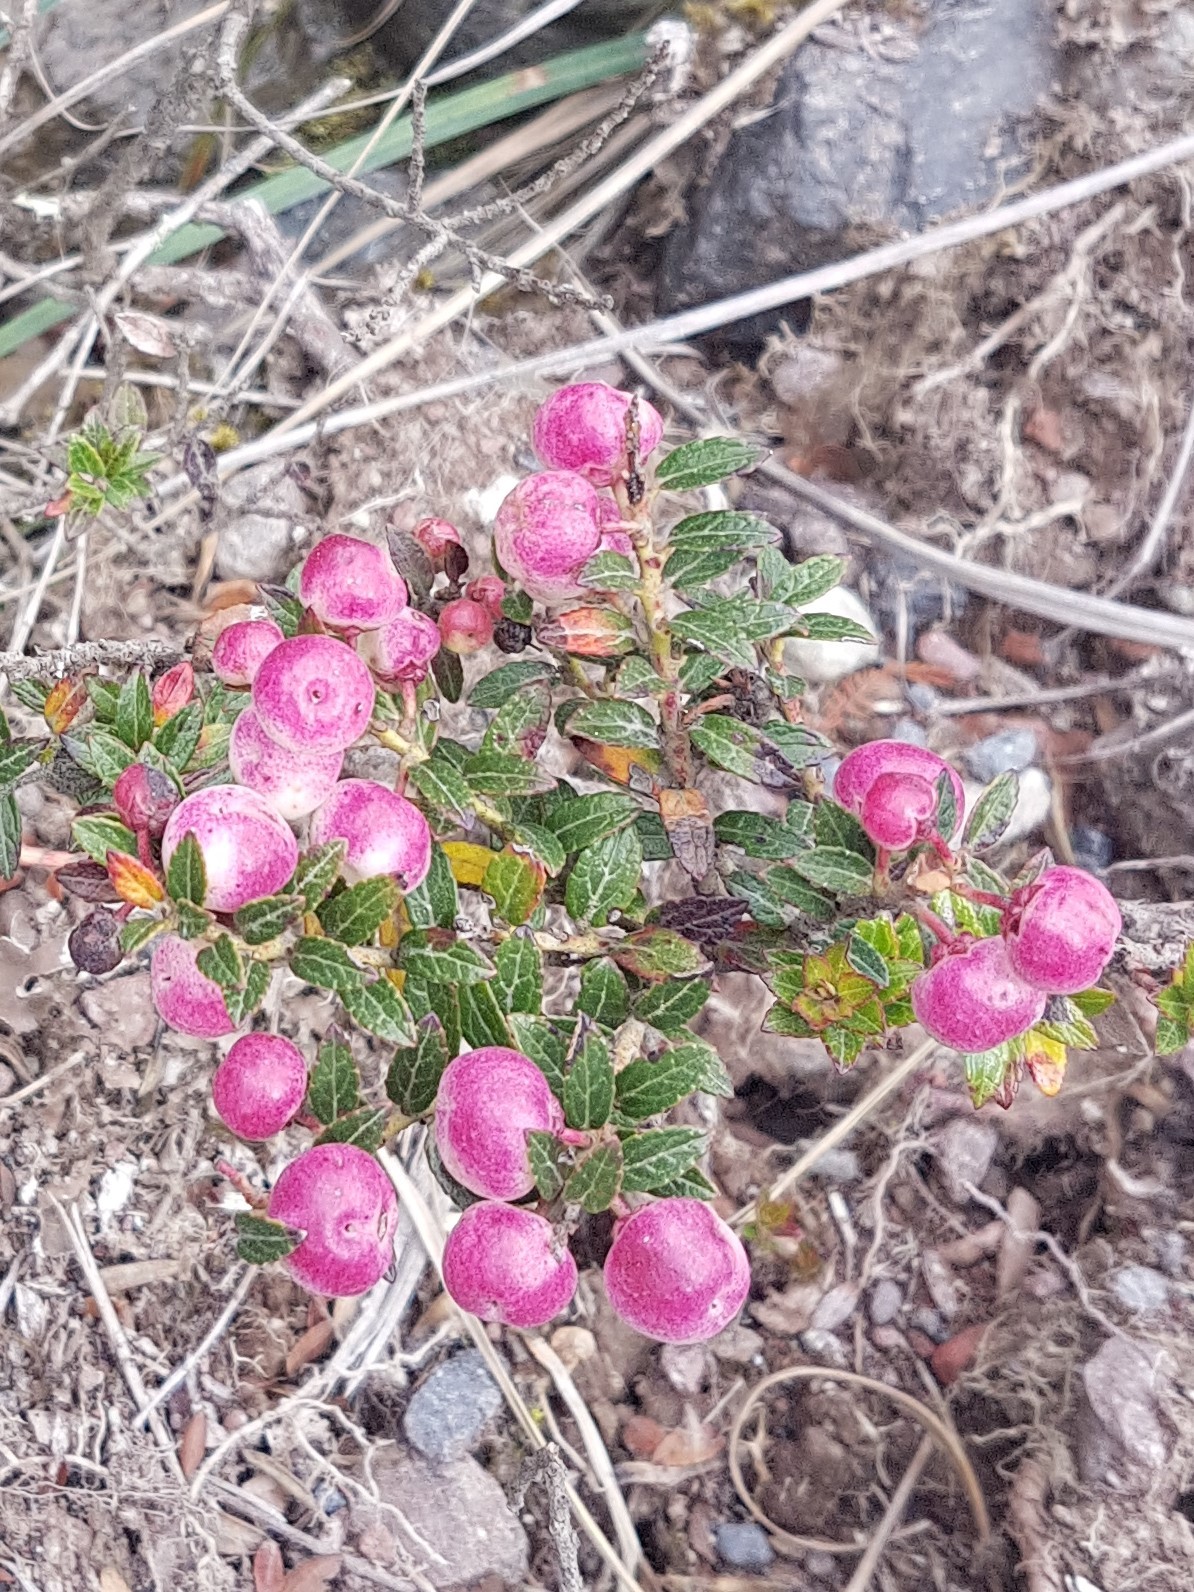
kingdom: Plantae
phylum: Tracheophyta
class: Magnoliopsida
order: Ericales
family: Ericaceae
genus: Gaultheria
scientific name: Gaultheria myrsinoides
